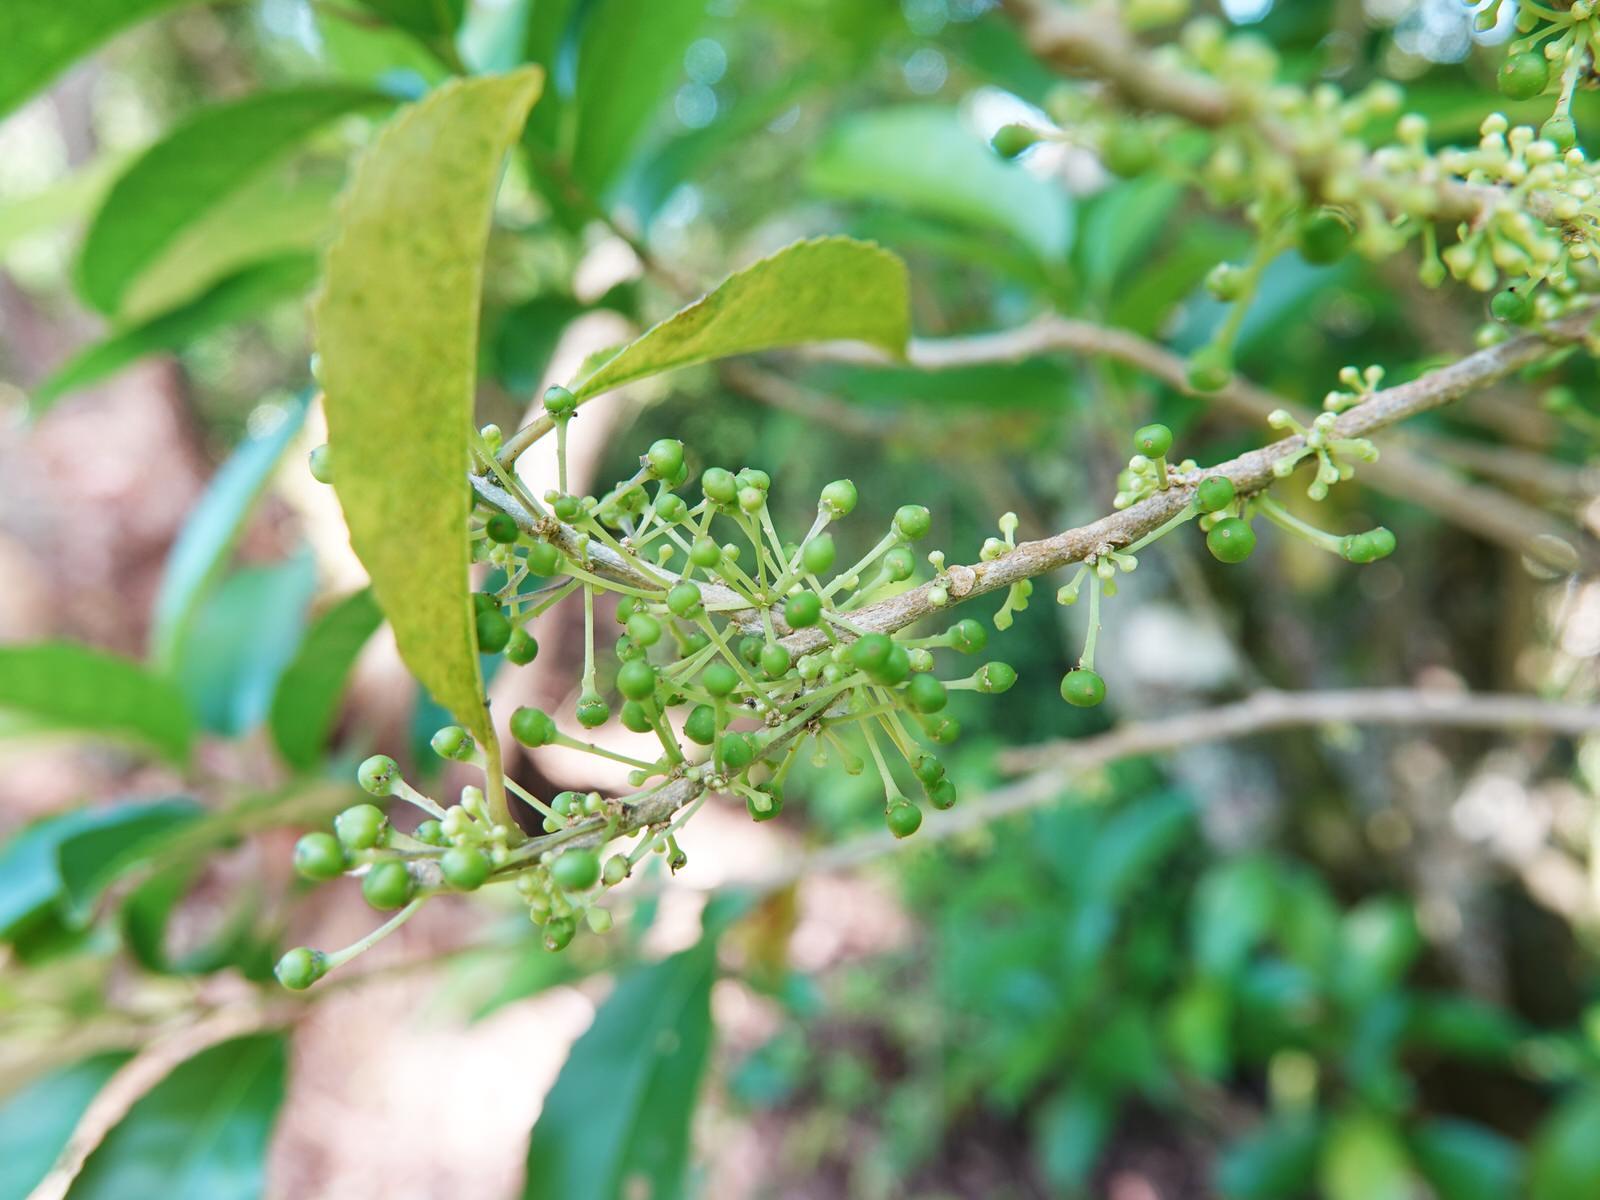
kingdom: Plantae
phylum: Tracheophyta
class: Magnoliopsida
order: Malpighiales
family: Violaceae
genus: Melicytus
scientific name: Melicytus ramiflorus
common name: Mahoe
